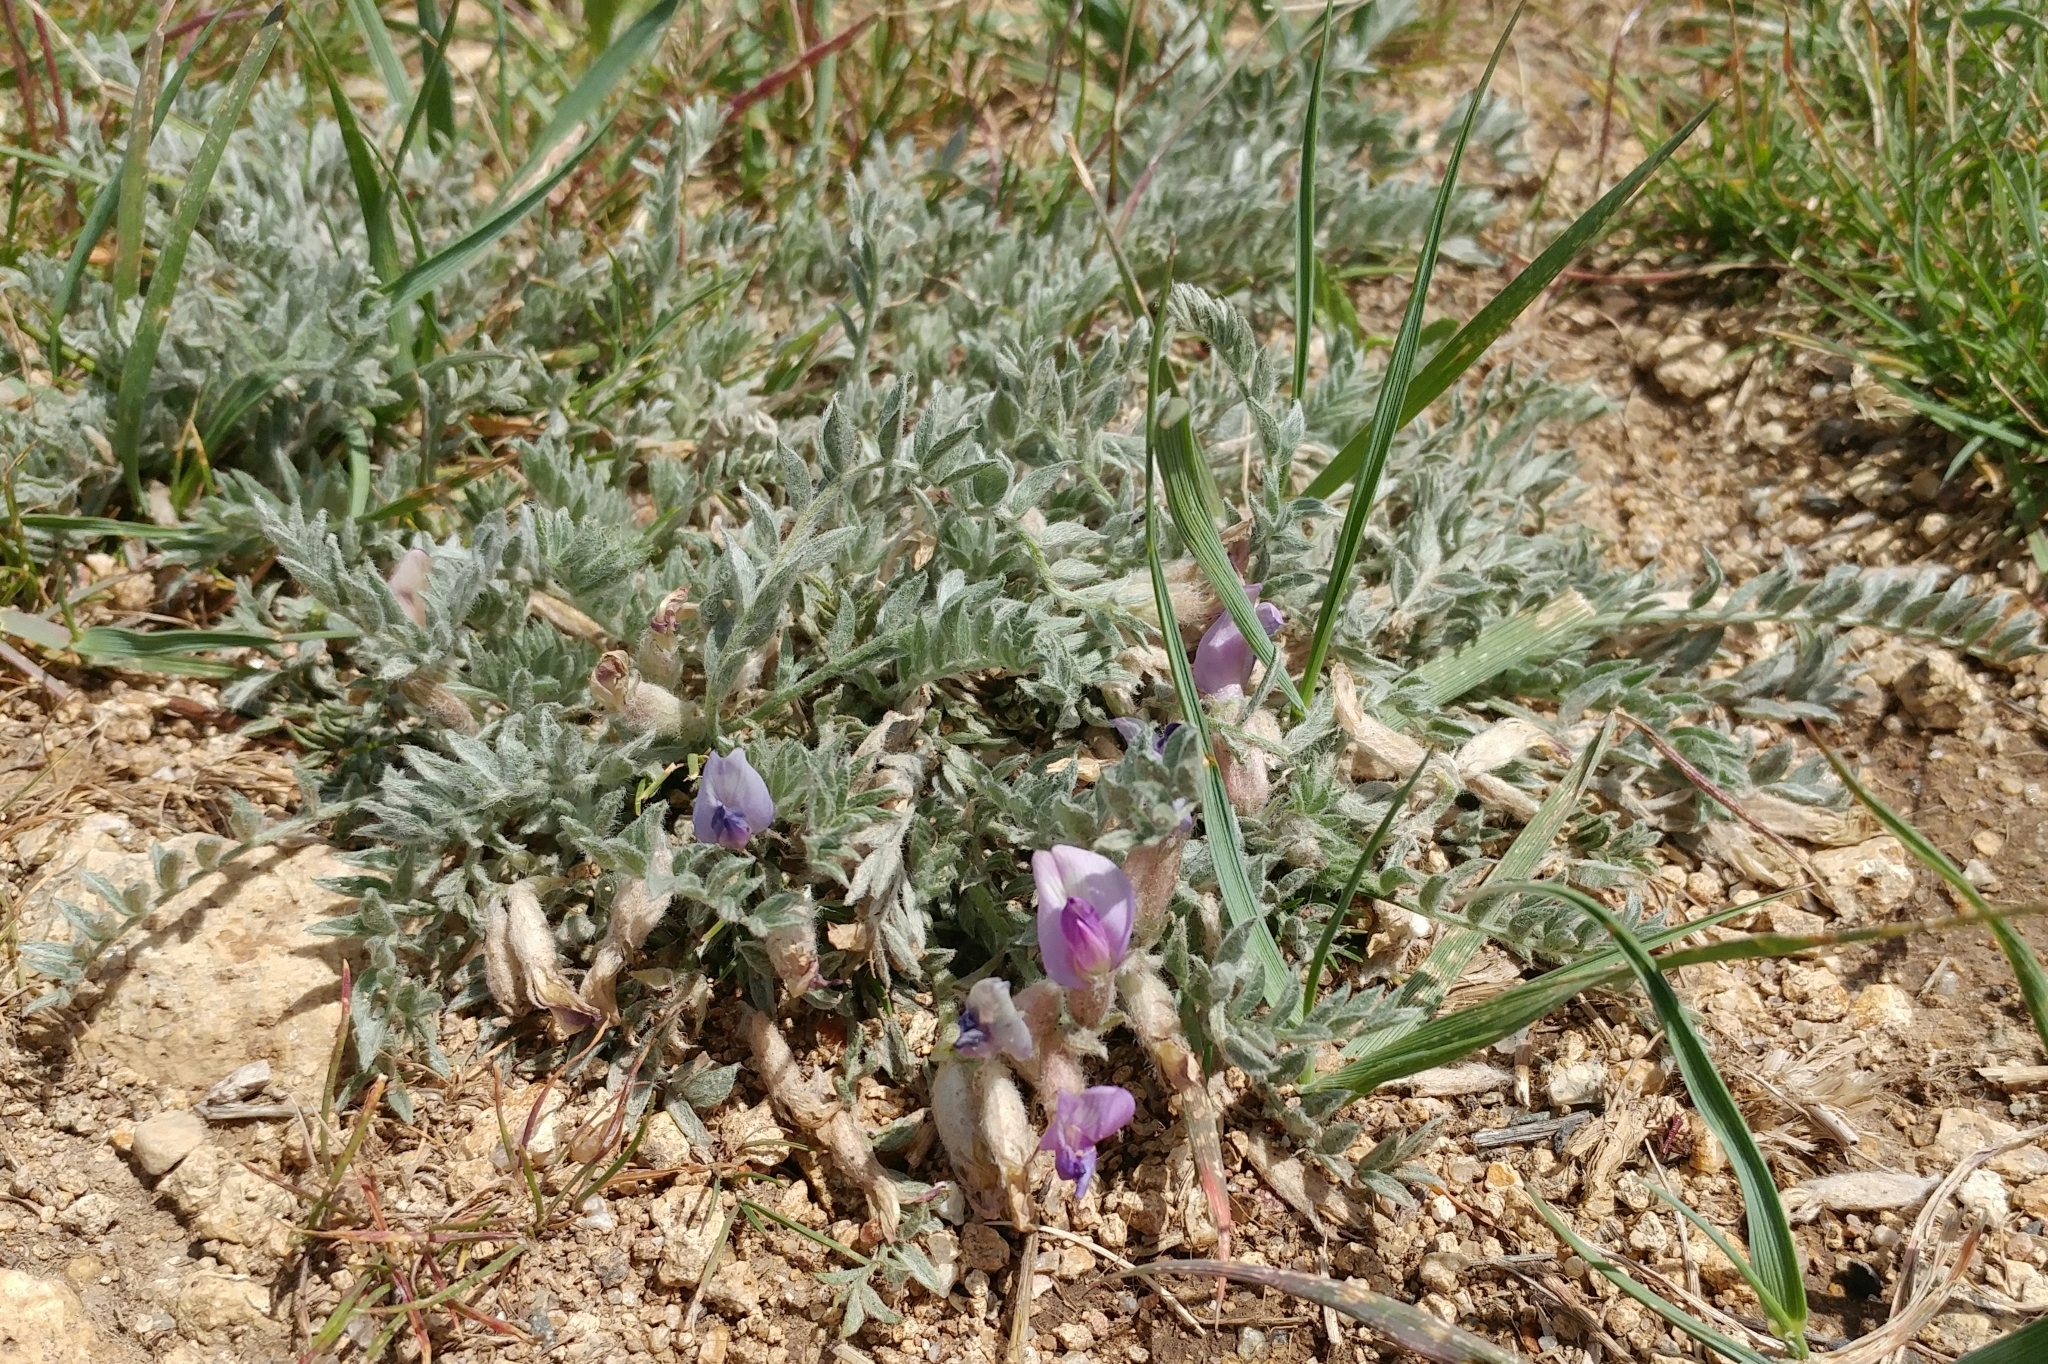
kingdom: Plantae
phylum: Tracheophyta
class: Magnoliopsida
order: Fabales
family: Fabaceae
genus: Astragalus
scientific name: Astragalus purshii
